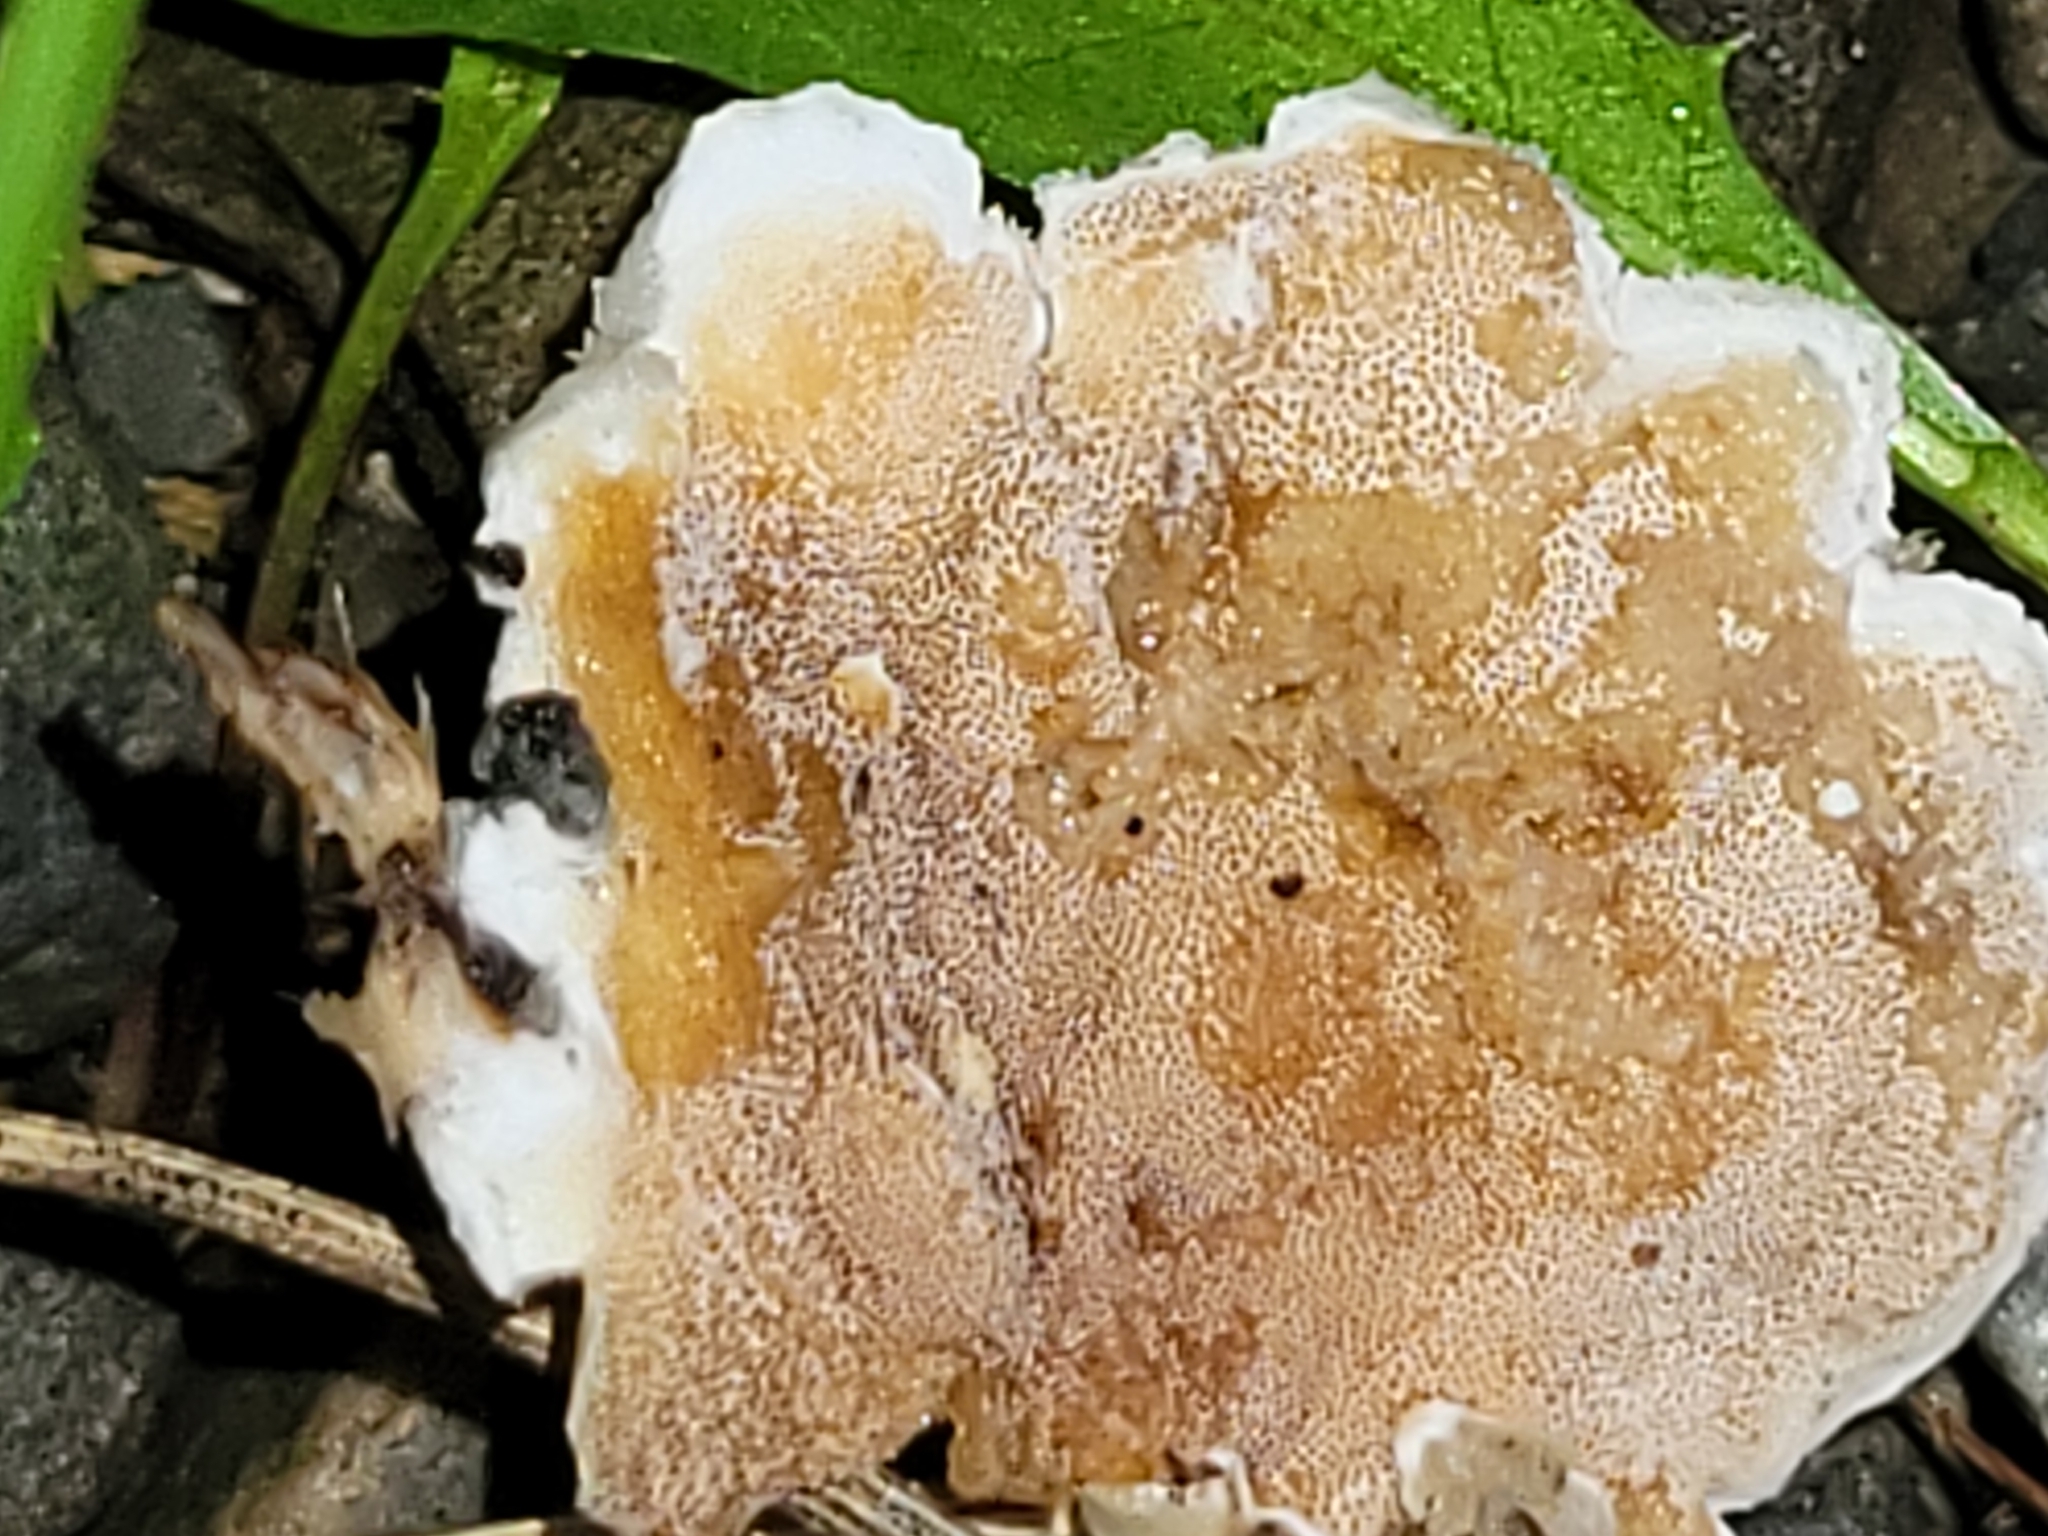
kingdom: Fungi
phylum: Basidiomycota
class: Agaricomycetes
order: Polyporales
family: Irpicaceae
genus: Vitreoporus
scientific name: Vitreoporus dichrous
